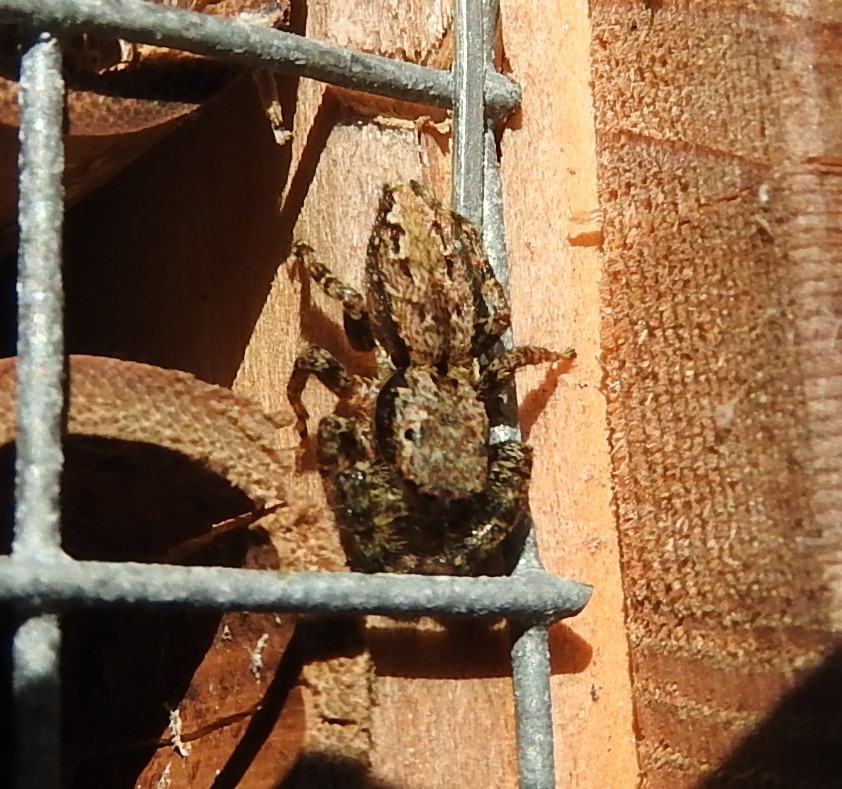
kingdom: Animalia
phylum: Arthropoda
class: Arachnida
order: Araneae
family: Salticidae
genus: Marpissa
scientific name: Marpissa muscosa
